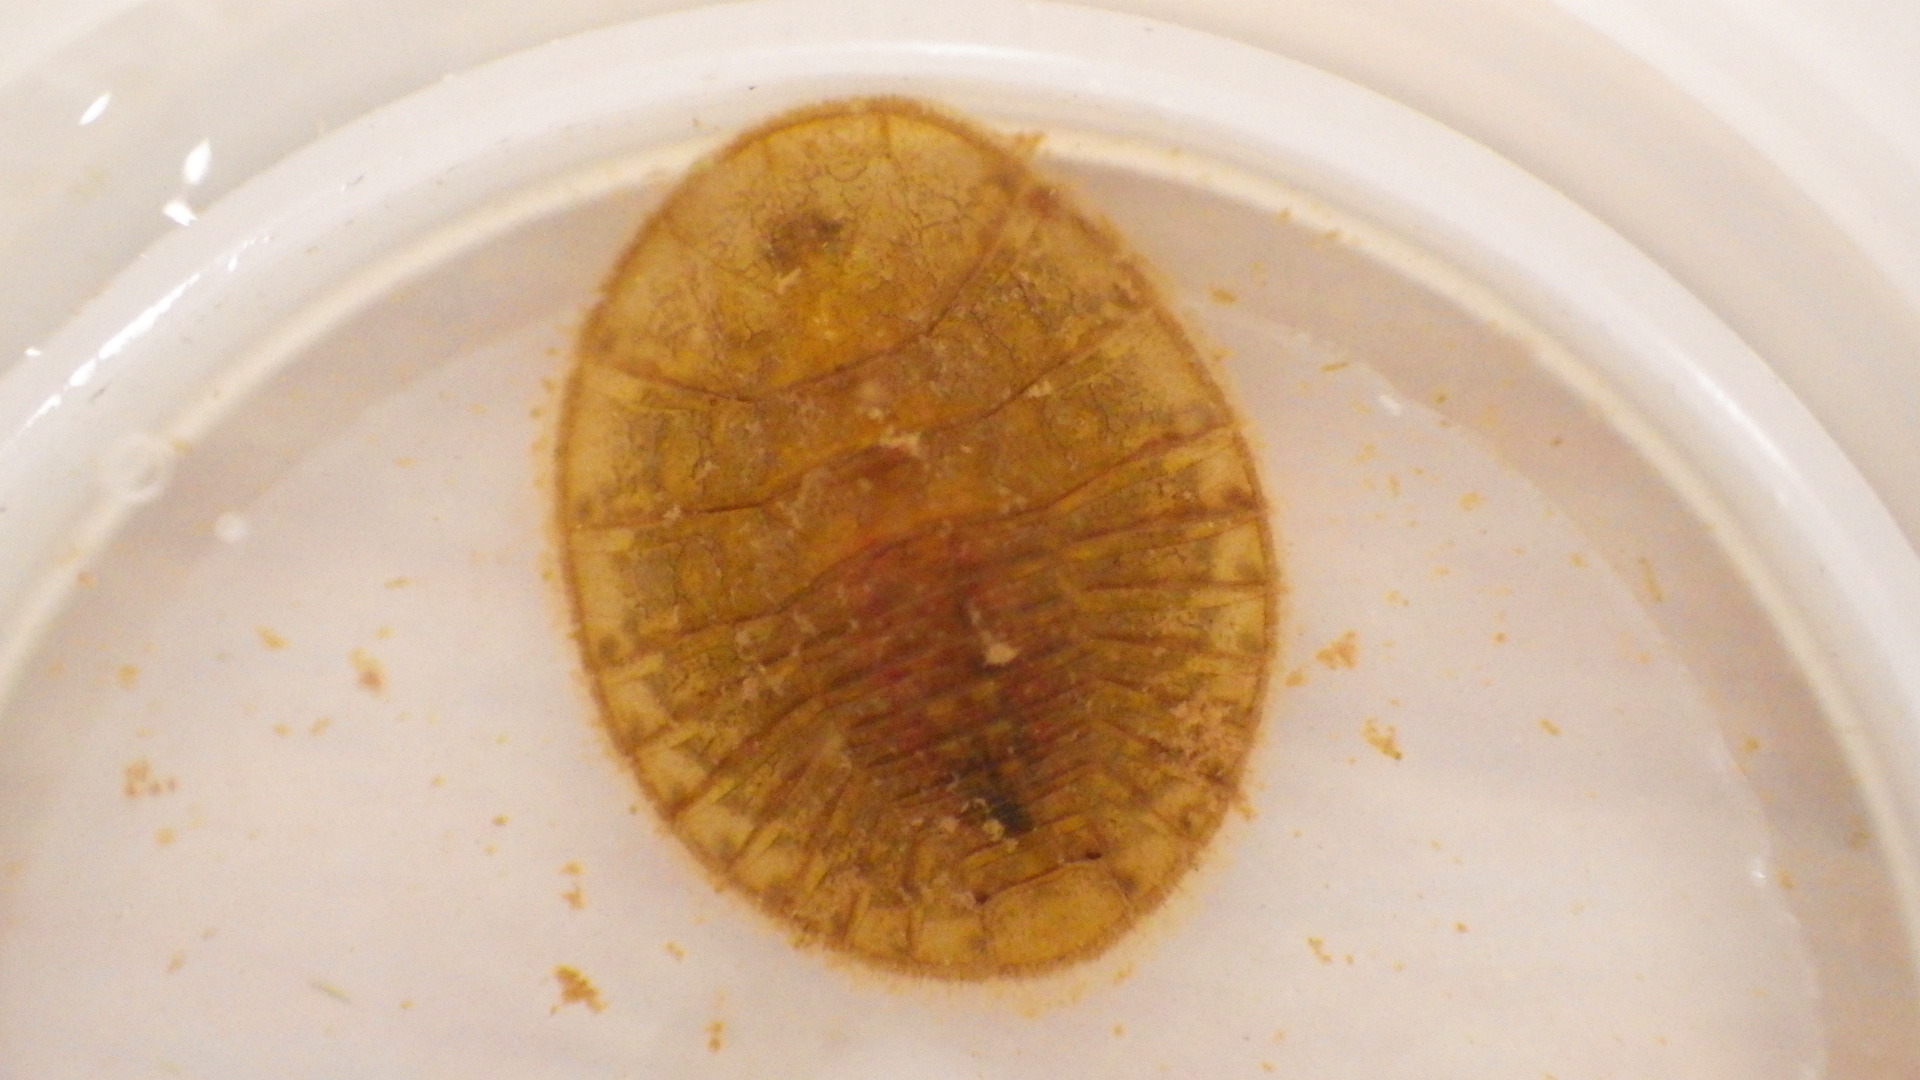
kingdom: Animalia
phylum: Arthropoda
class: Insecta
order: Coleoptera
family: Psephenidae
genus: Psephenus
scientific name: Psephenus herricki
